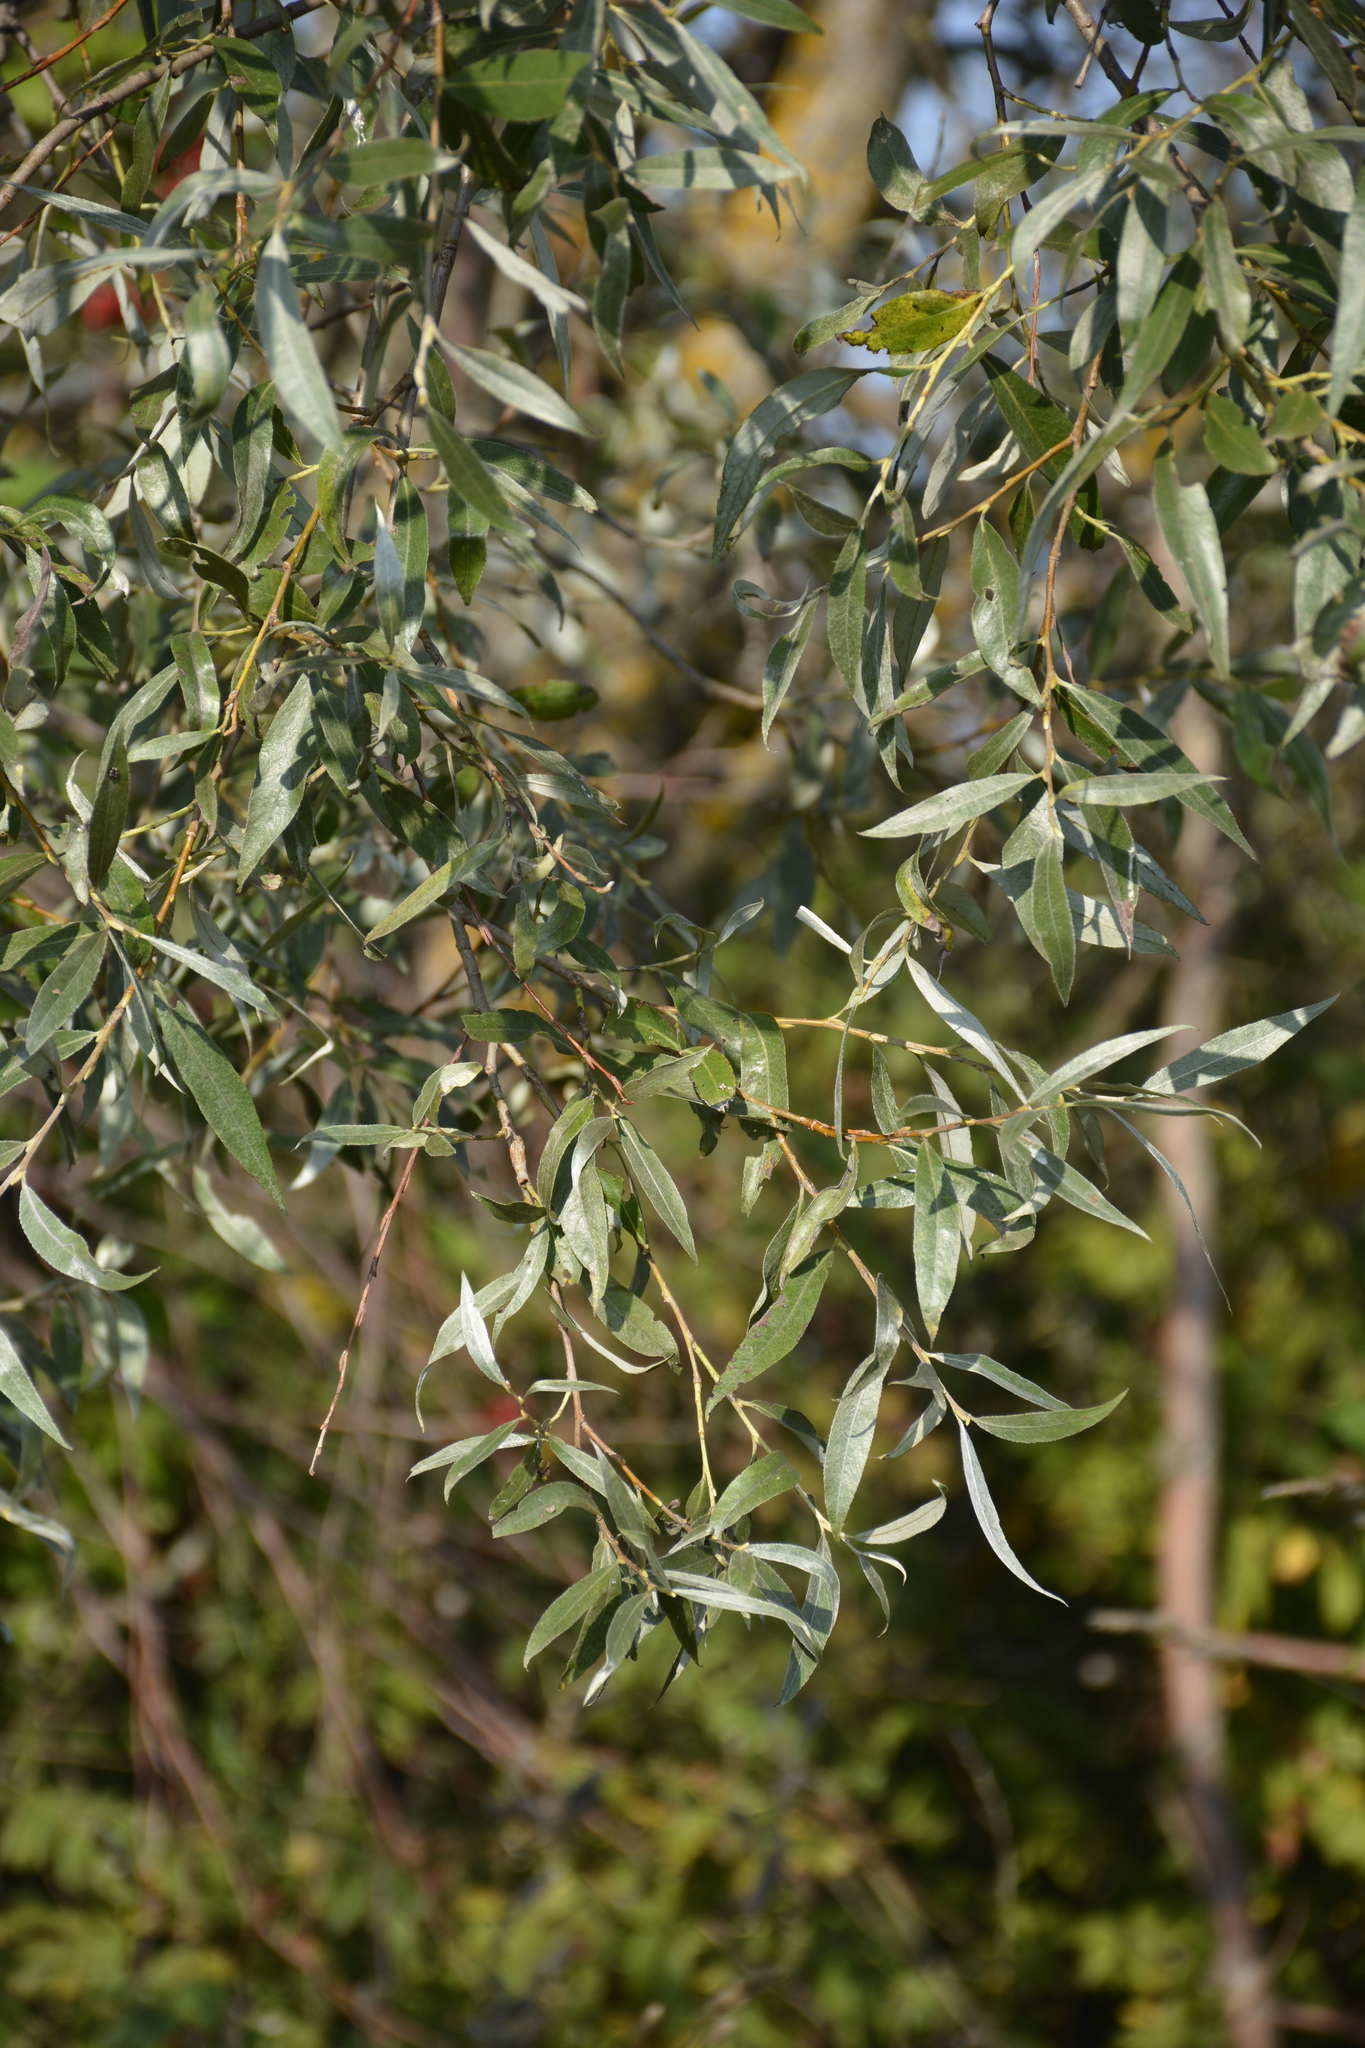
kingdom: Plantae
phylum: Tracheophyta
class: Magnoliopsida
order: Malpighiales
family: Salicaceae
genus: Salix
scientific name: Salix alba
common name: White willow
